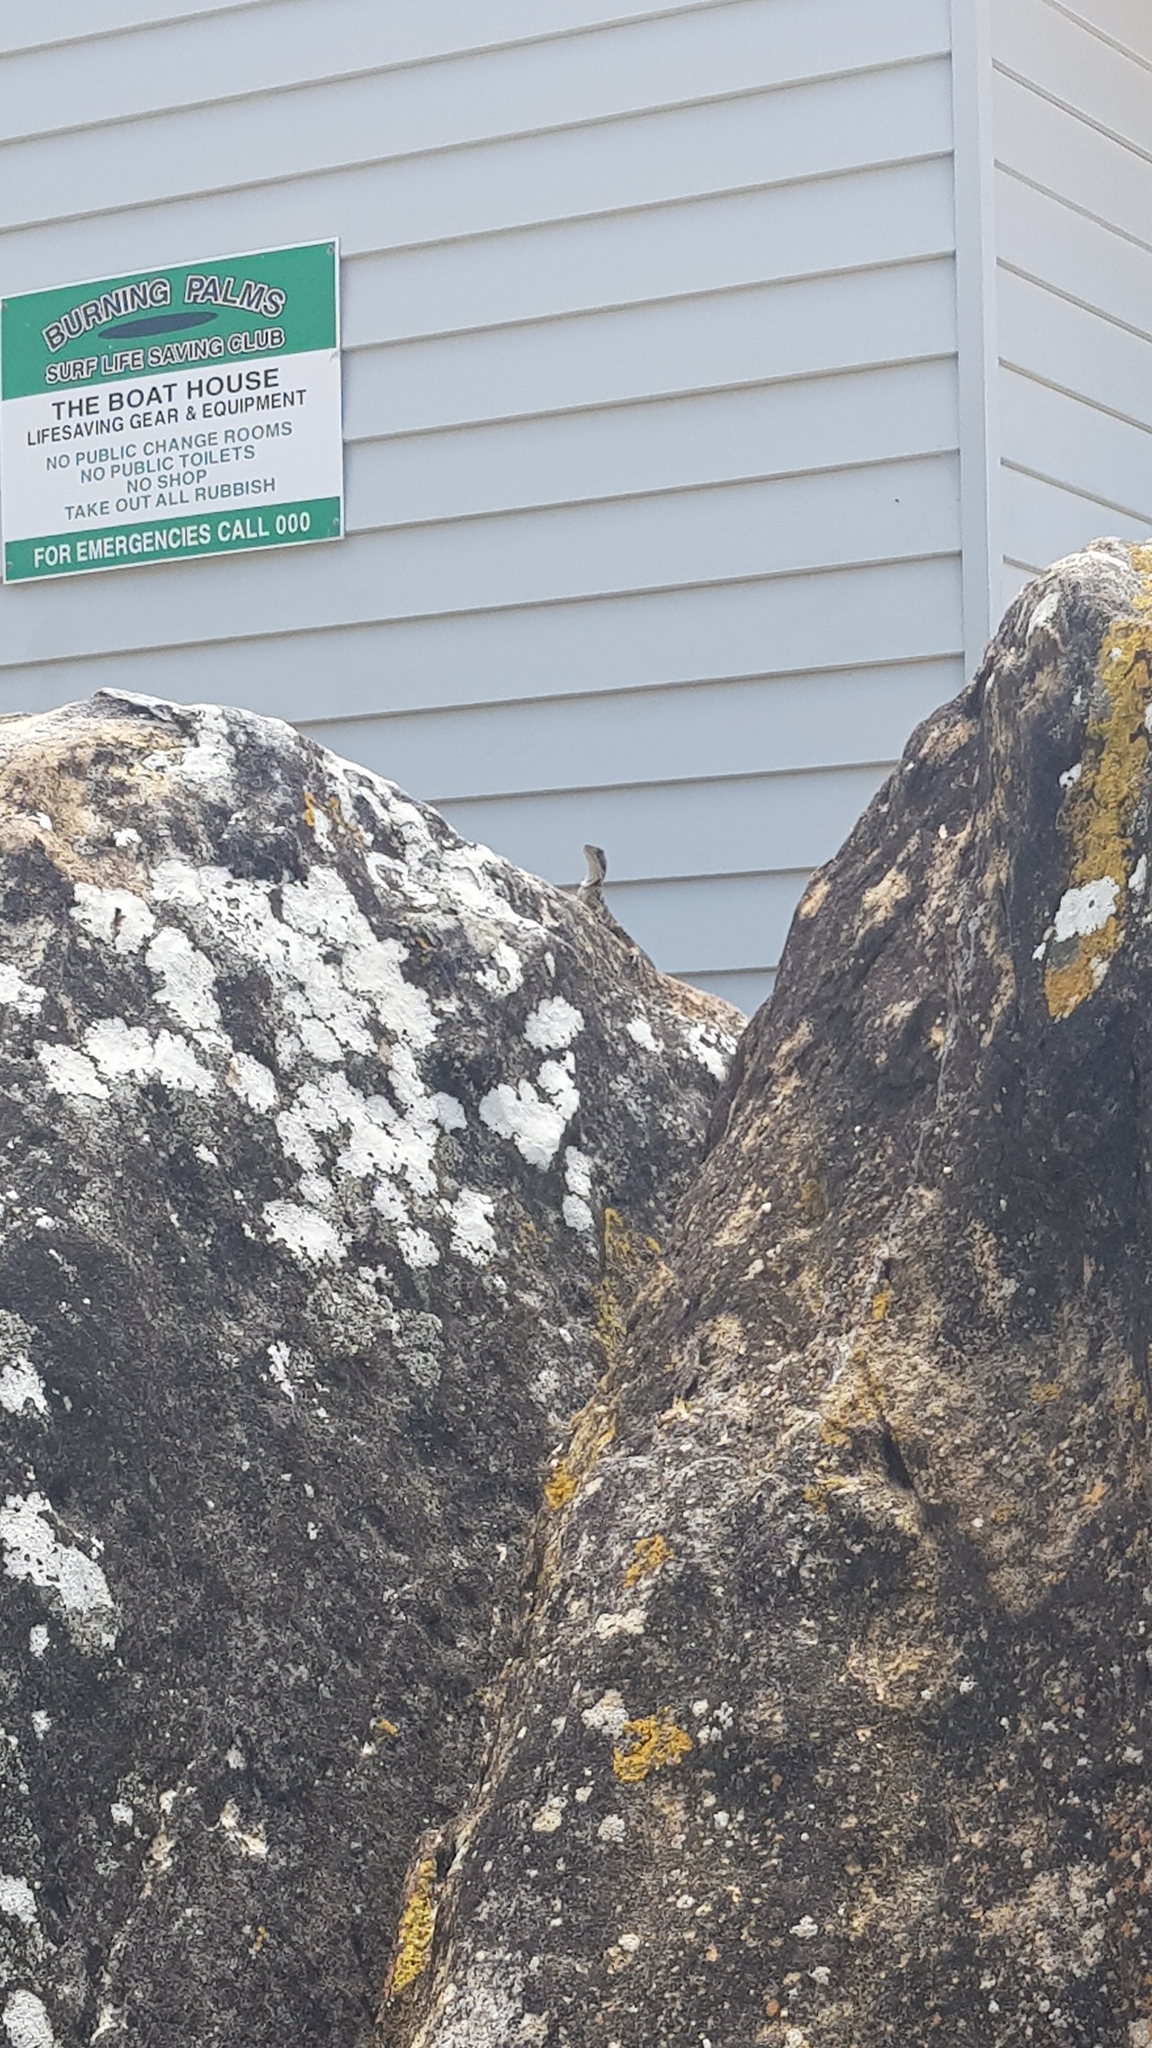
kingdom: Animalia
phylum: Chordata
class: Squamata
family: Agamidae
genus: Intellagama
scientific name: Intellagama lesueurii
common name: Eastern water dragon
